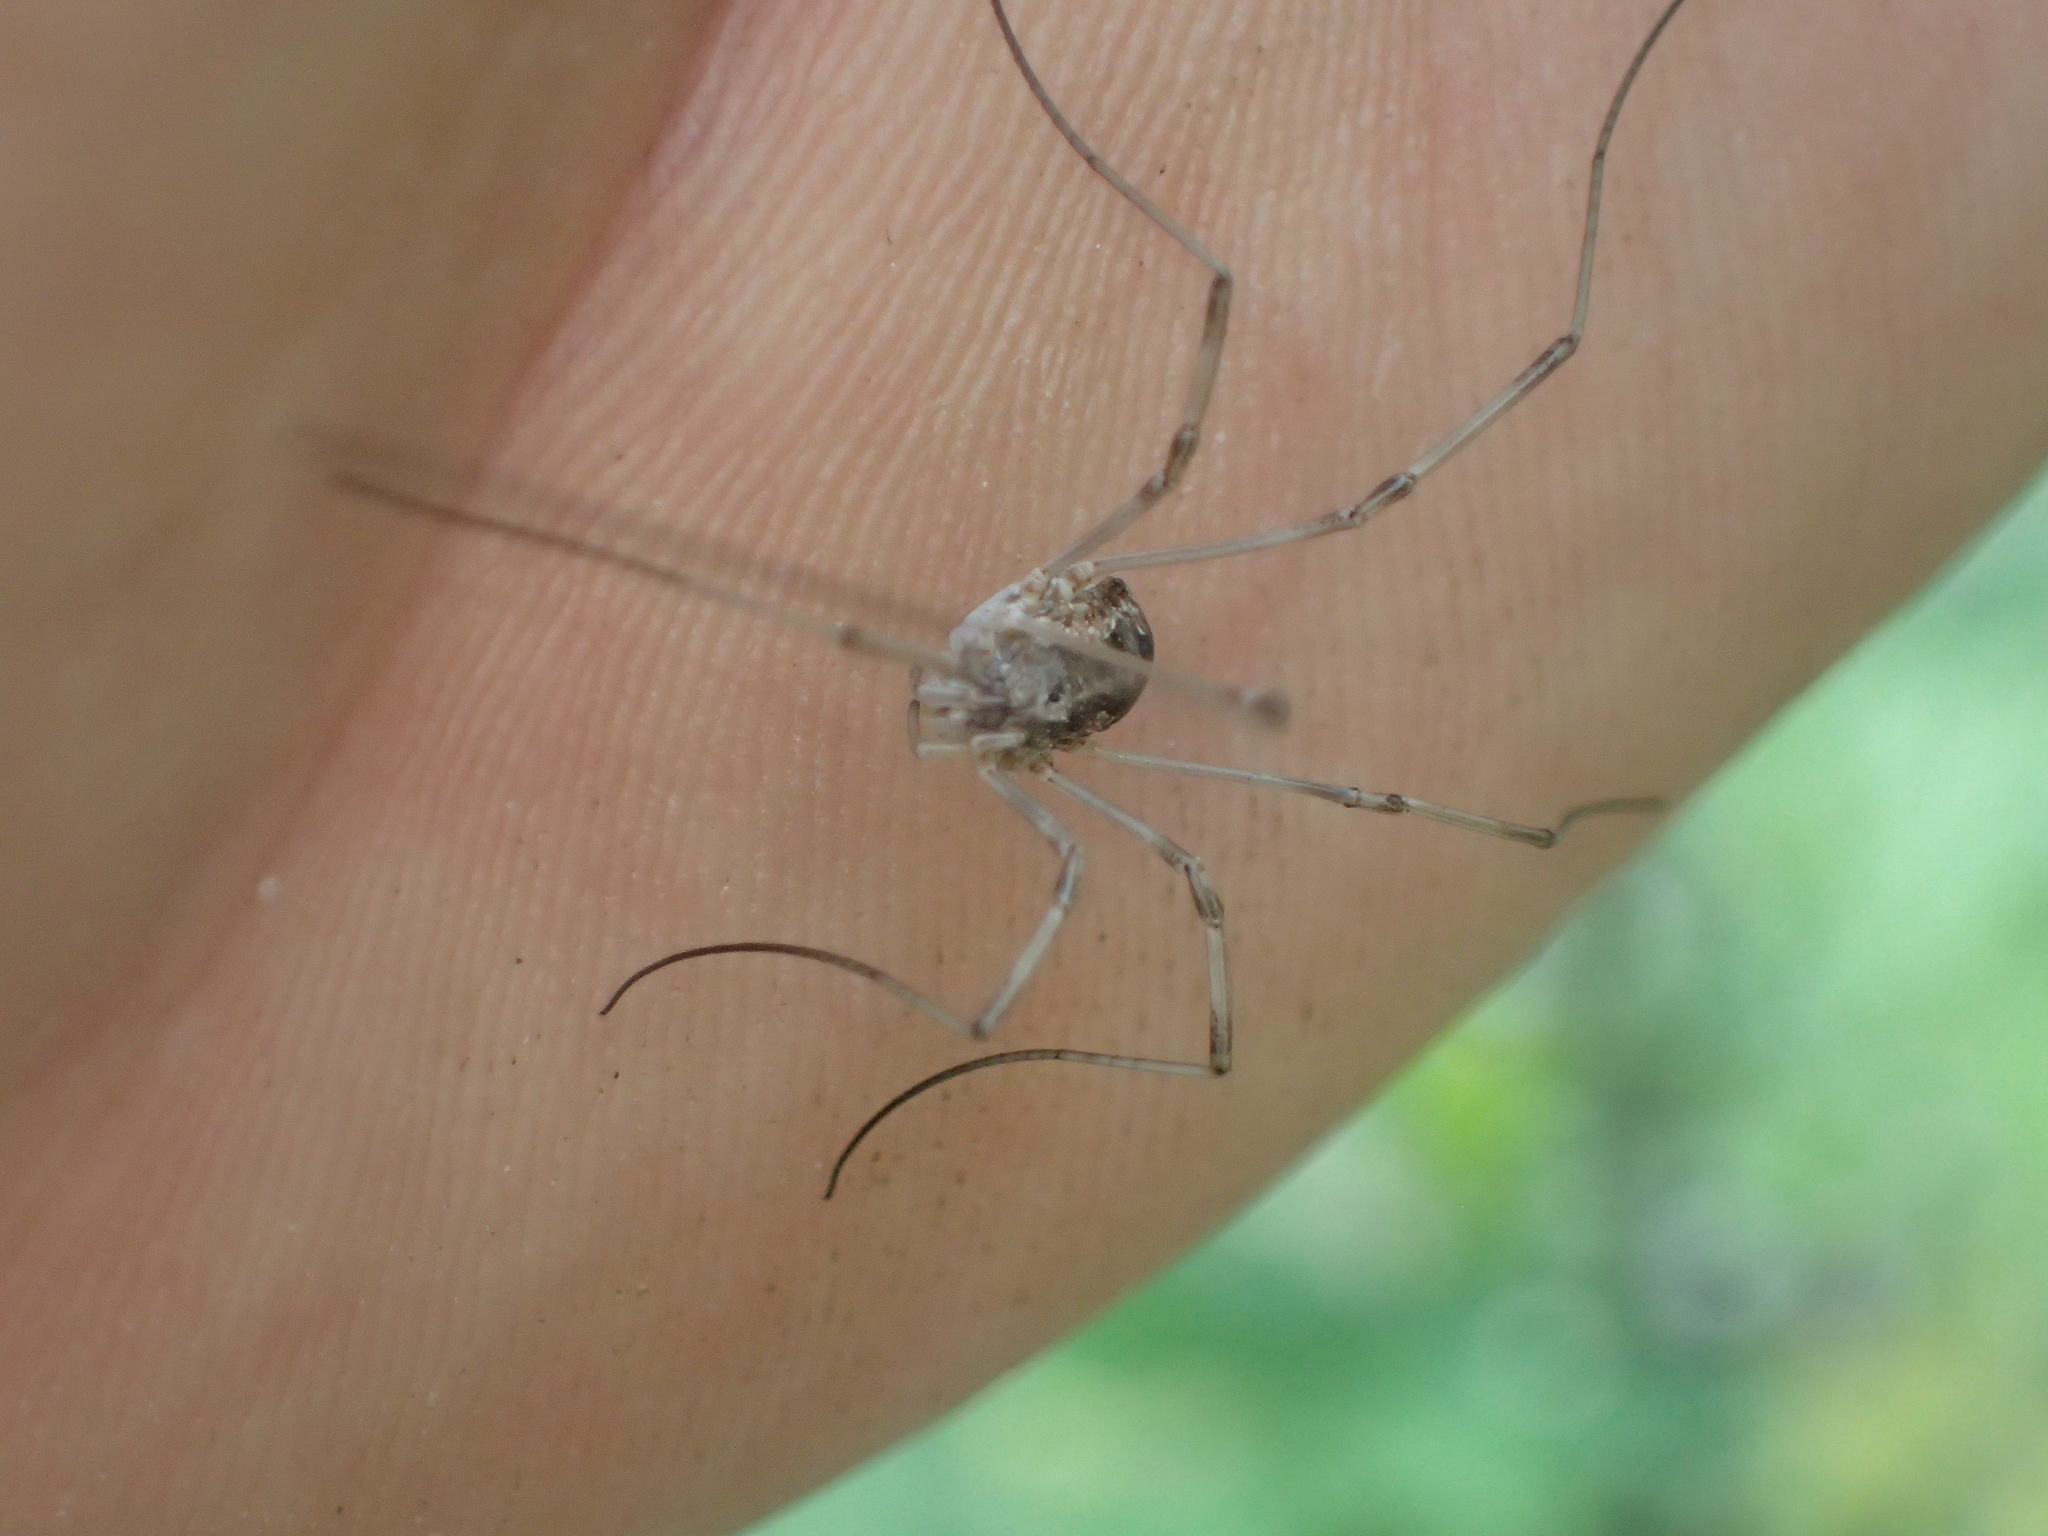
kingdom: Animalia
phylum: Arthropoda
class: Arachnida
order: Opiliones
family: Phalangiidae
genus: Phalangium
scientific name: Phalangium opilio
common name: Daddy longleg
